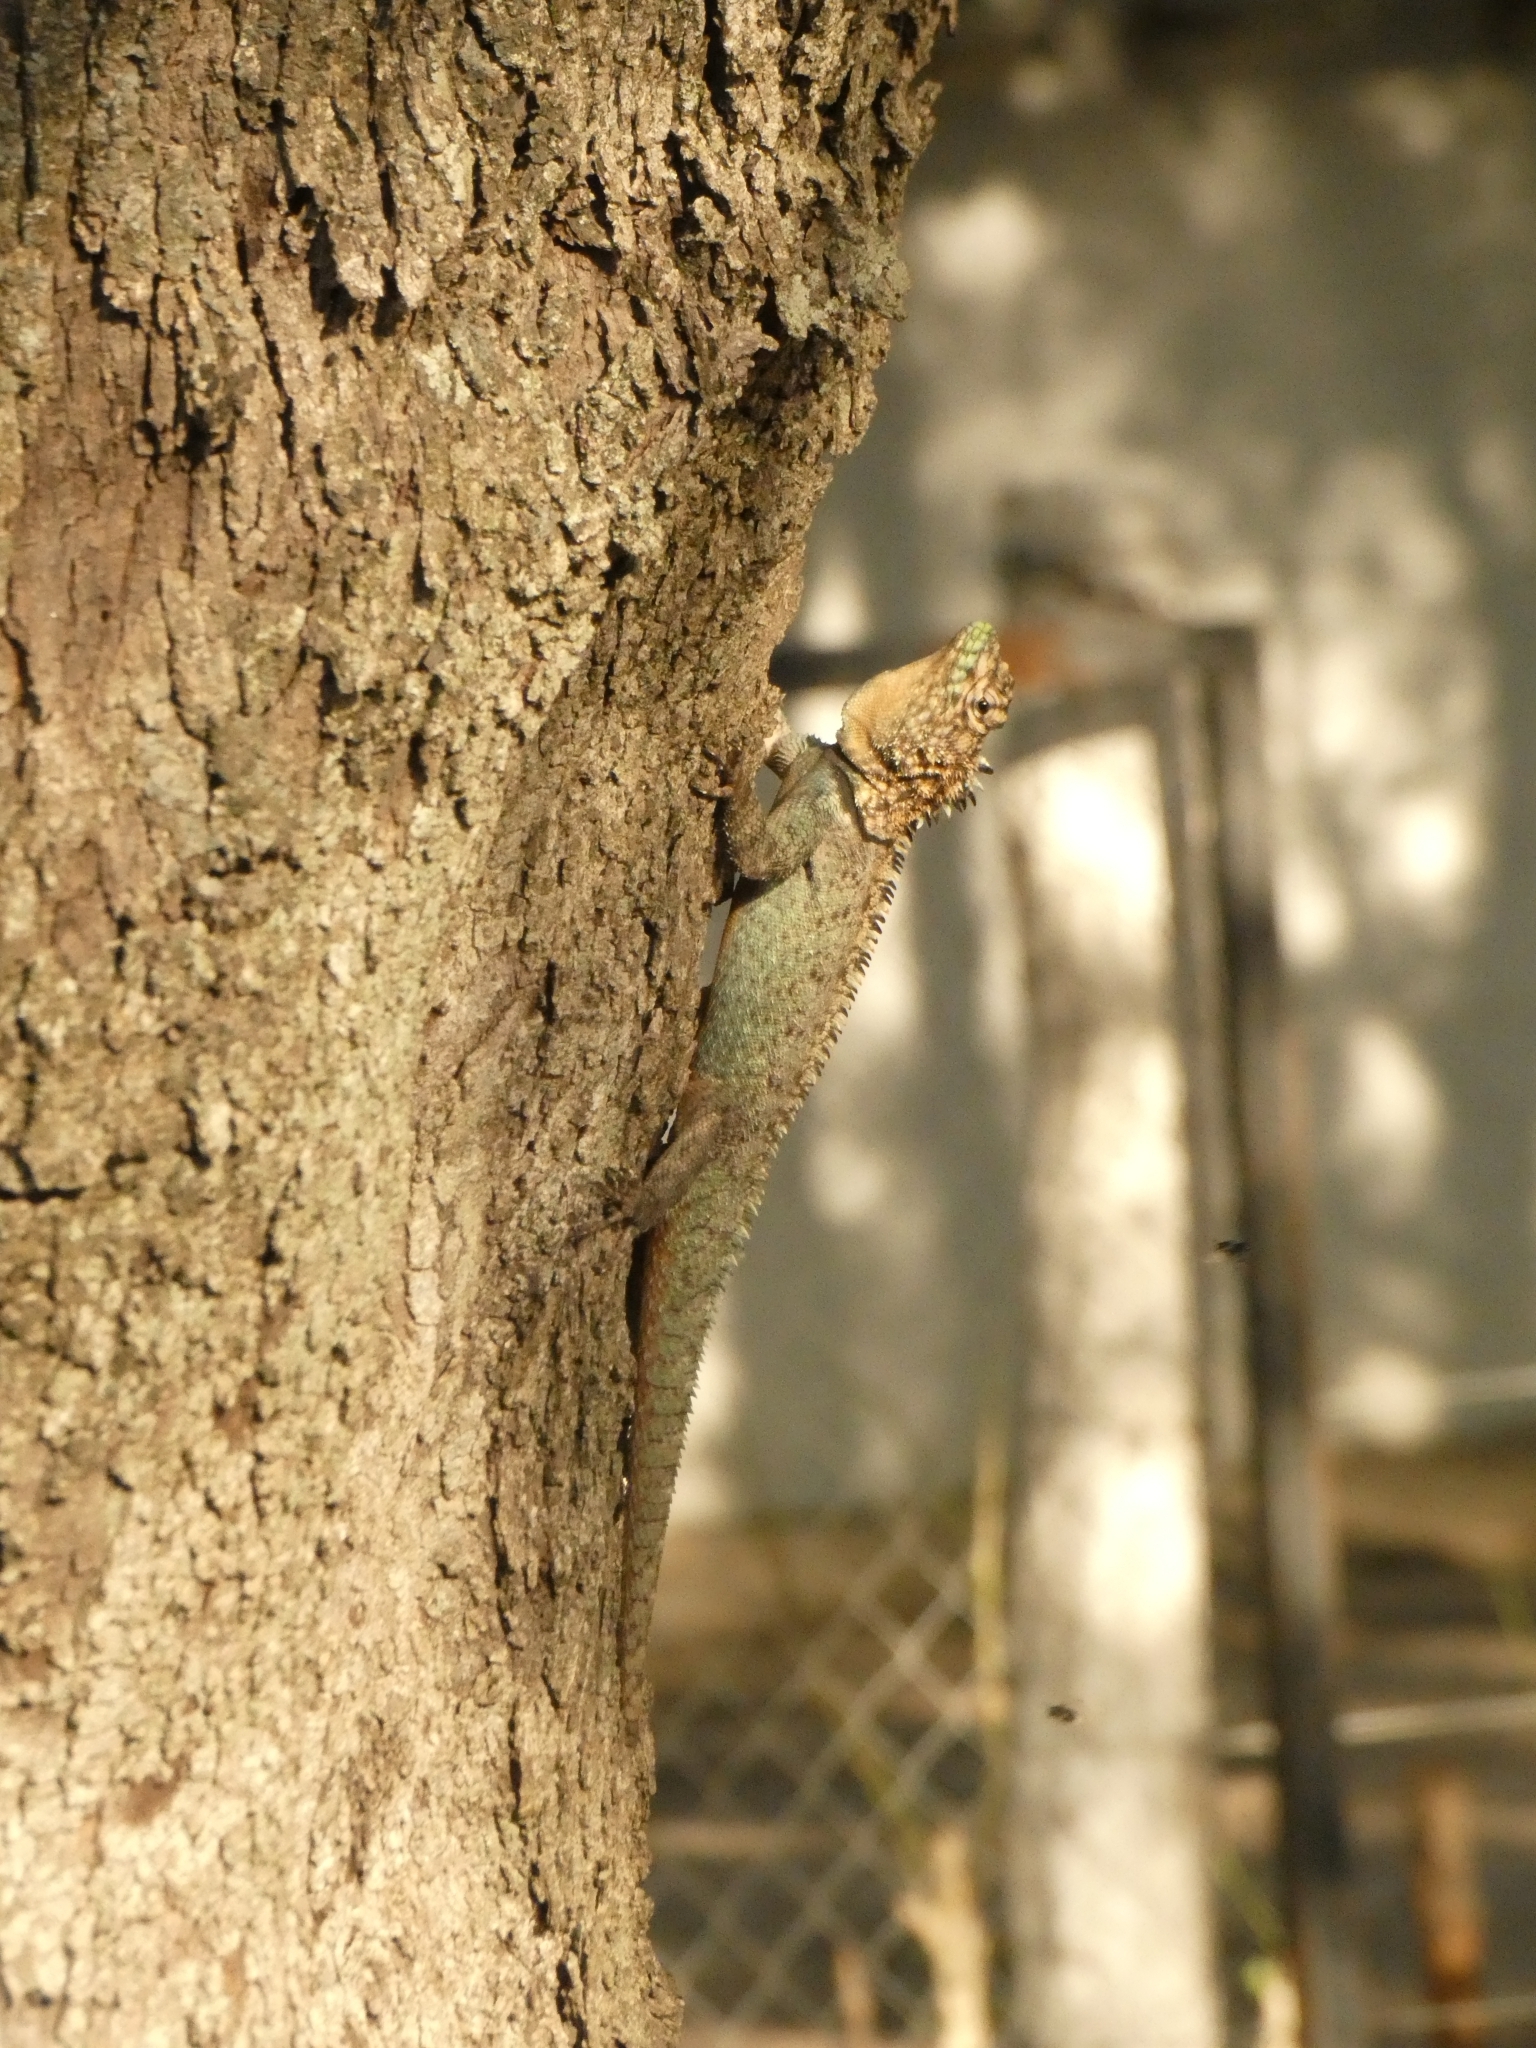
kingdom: Animalia
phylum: Chordata
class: Squamata
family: Tropiduridae
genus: Tropidurus
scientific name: Tropidurus spinulosus
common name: Spiny lava lizard
